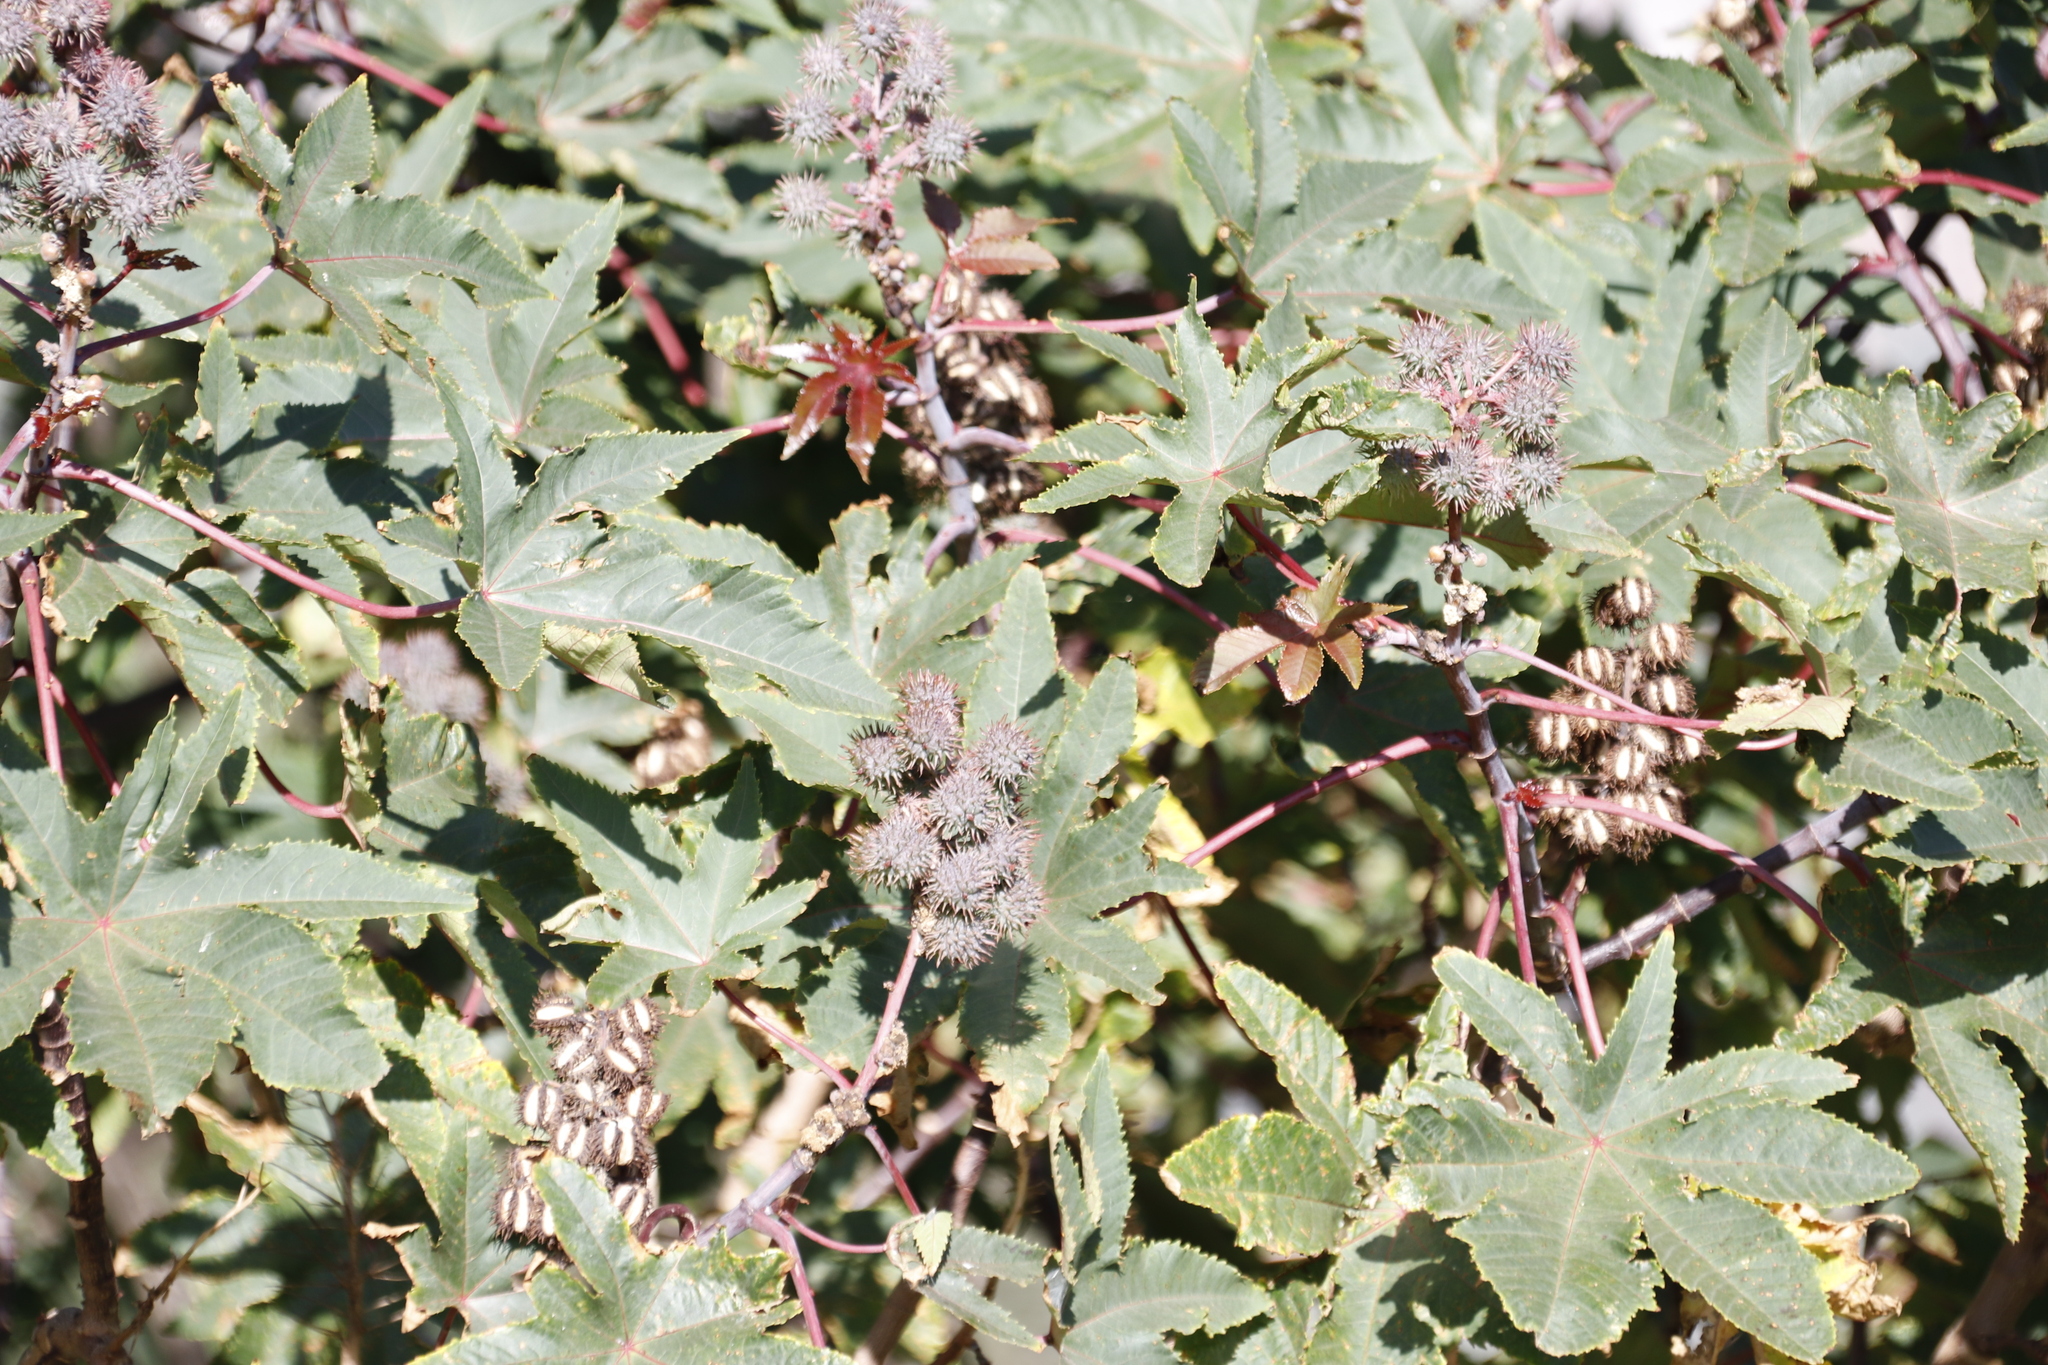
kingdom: Plantae
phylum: Tracheophyta
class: Magnoliopsida
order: Malpighiales
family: Euphorbiaceae
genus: Ricinus
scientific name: Ricinus communis
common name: Castor-oil-plant
